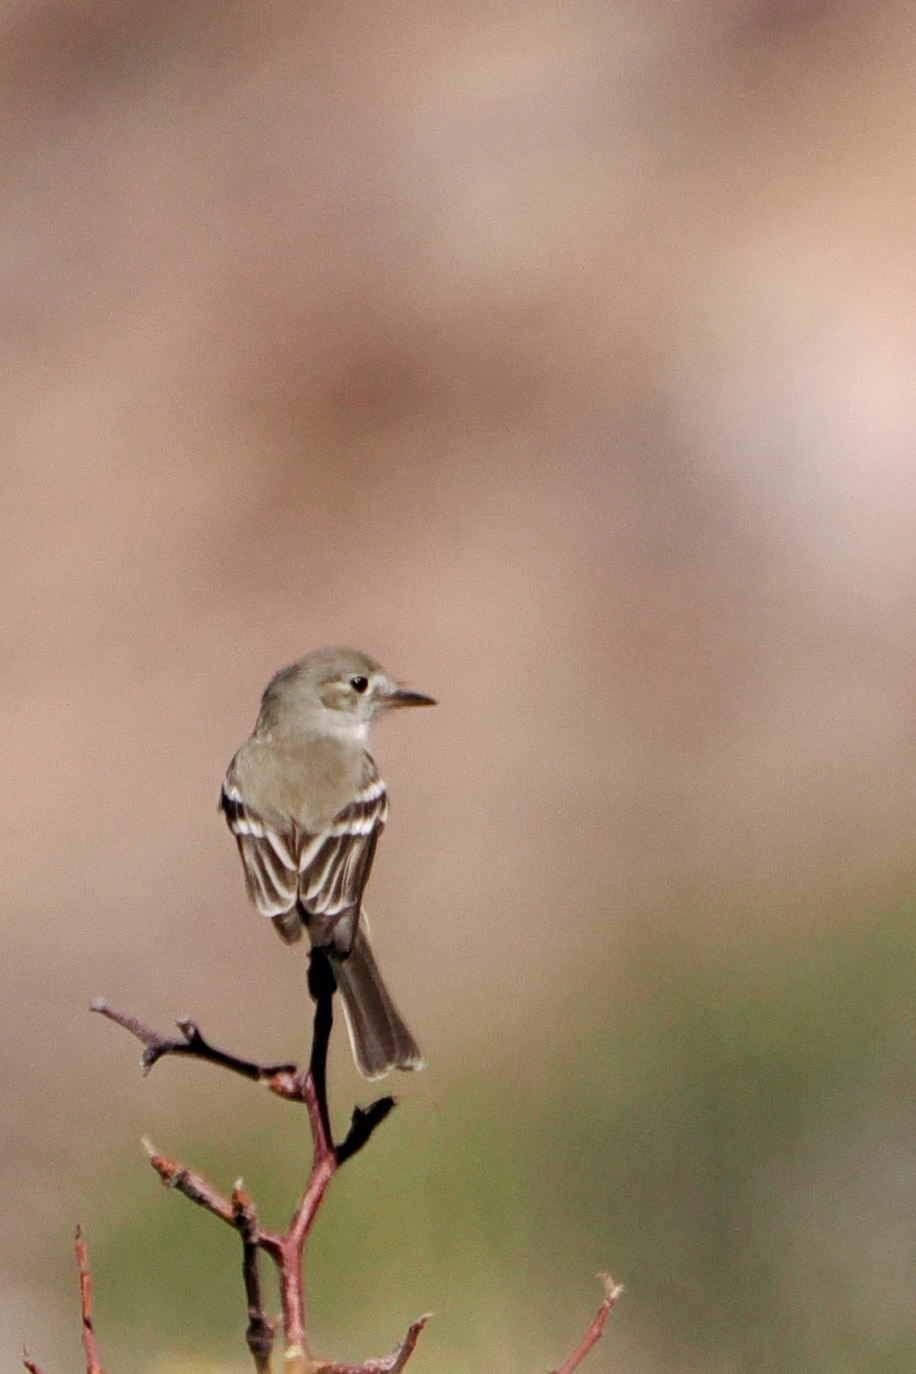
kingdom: Animalia
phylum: Chordata
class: Aves
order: Passeriformes
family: Tyrannidae
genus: Empidonax
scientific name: Empidonax wrightii
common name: Gray flycatcher
